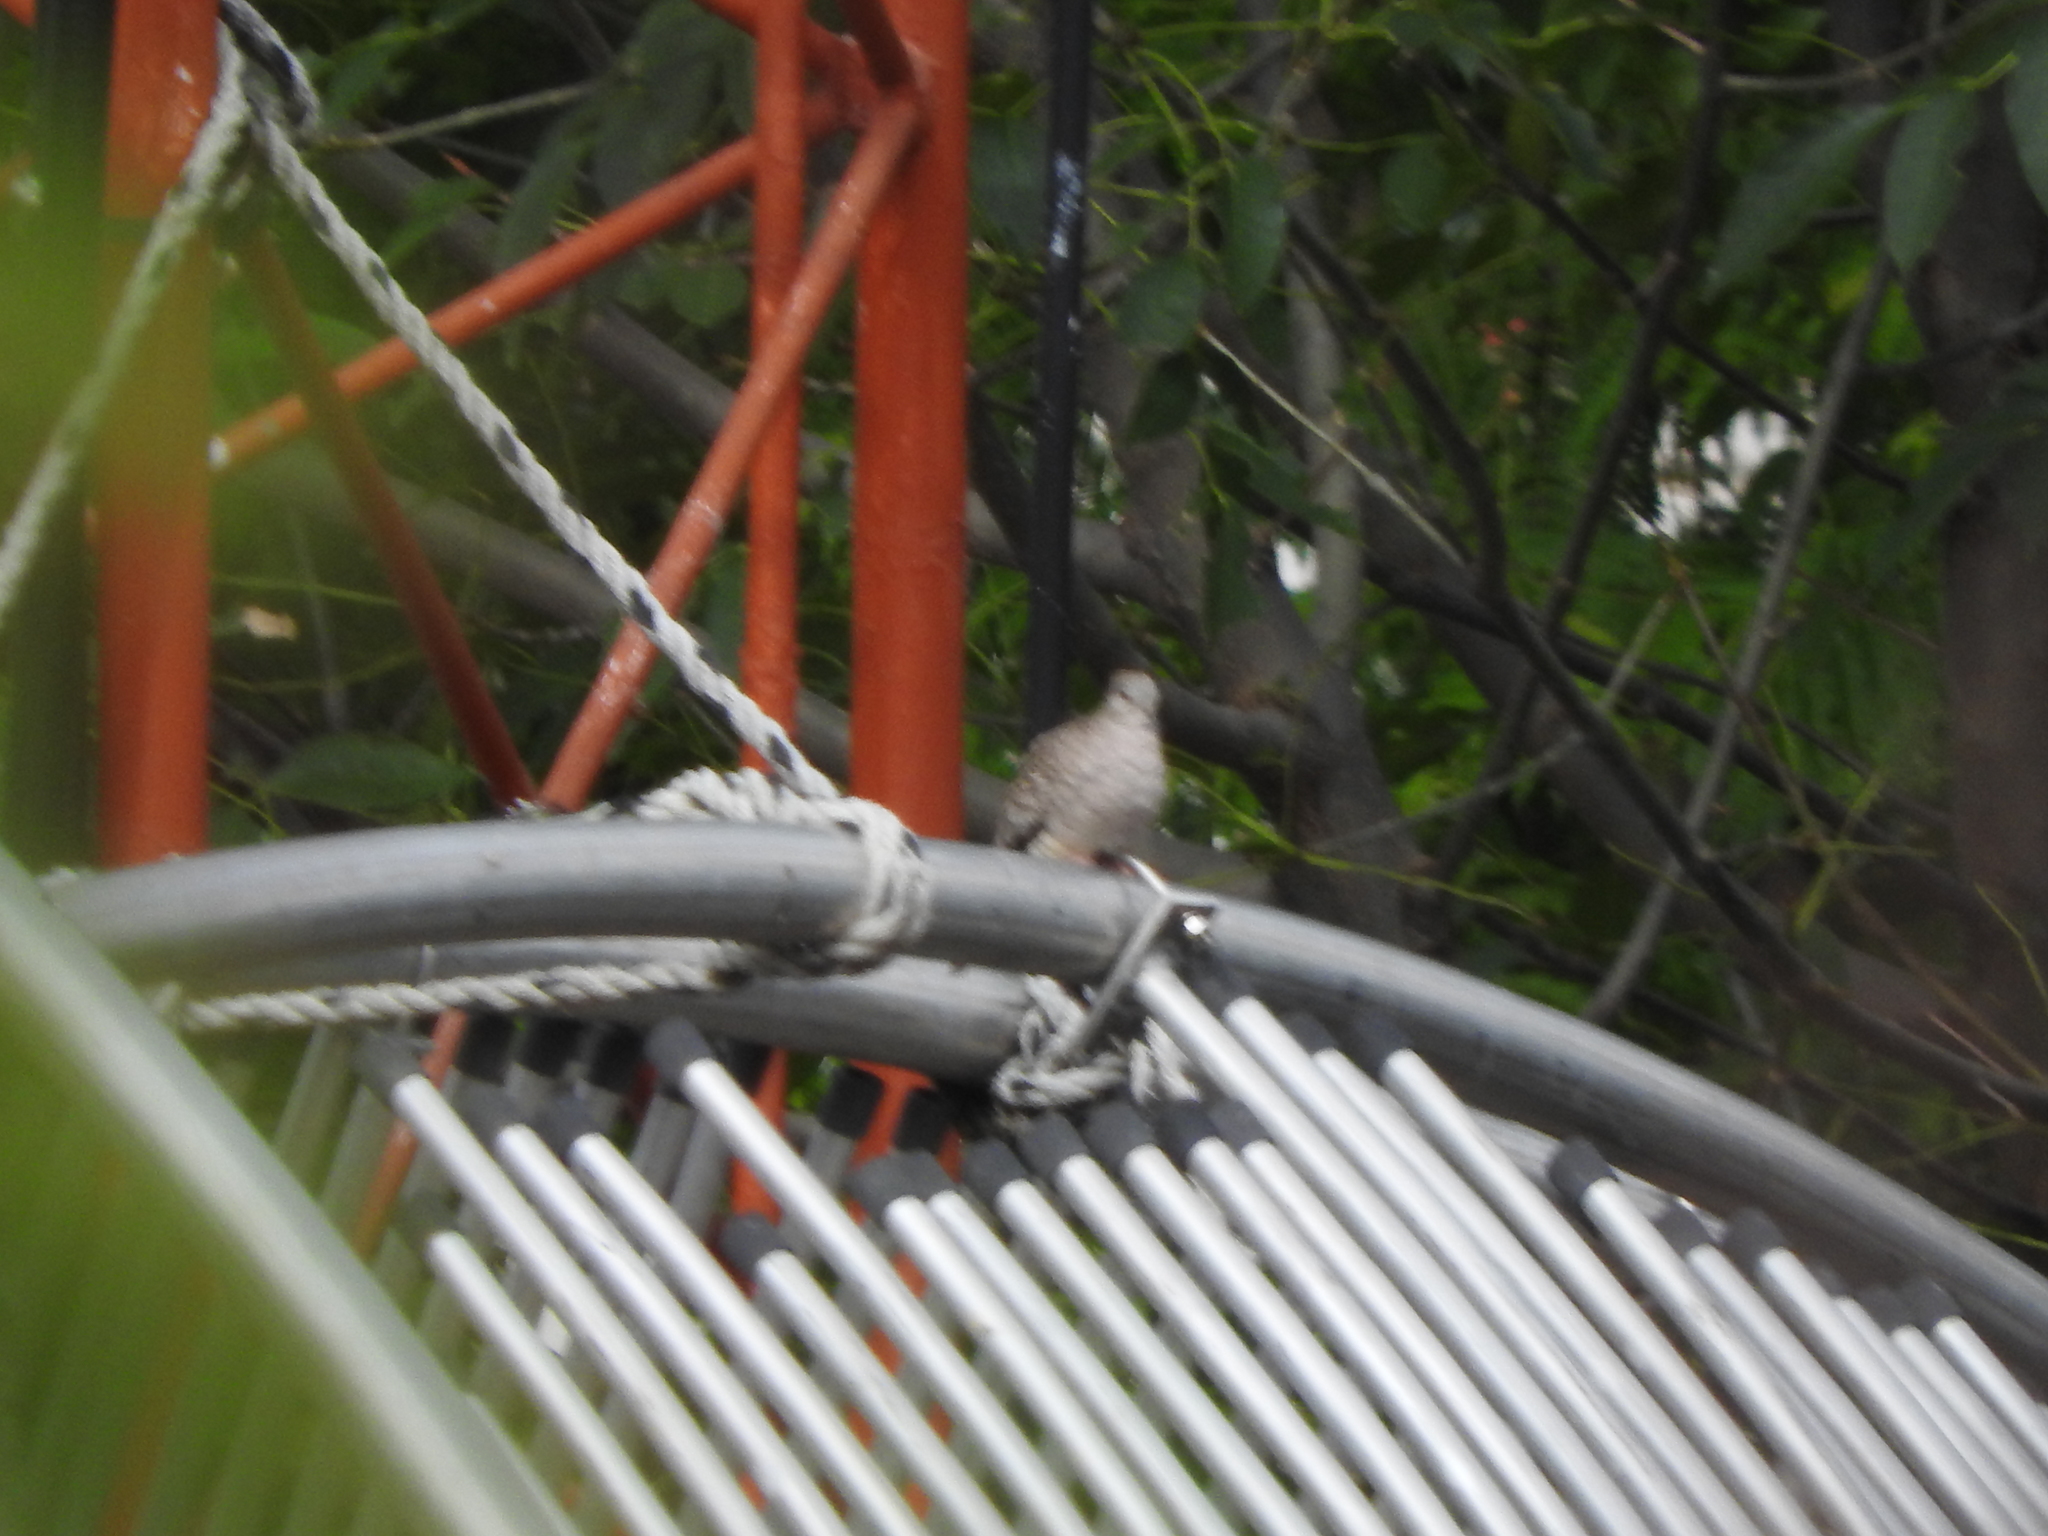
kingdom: Animalia
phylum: Chordata
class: Aves
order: Columbiformes
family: Columbidae
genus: Columbina
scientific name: Columbina inca
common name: Inca dove
